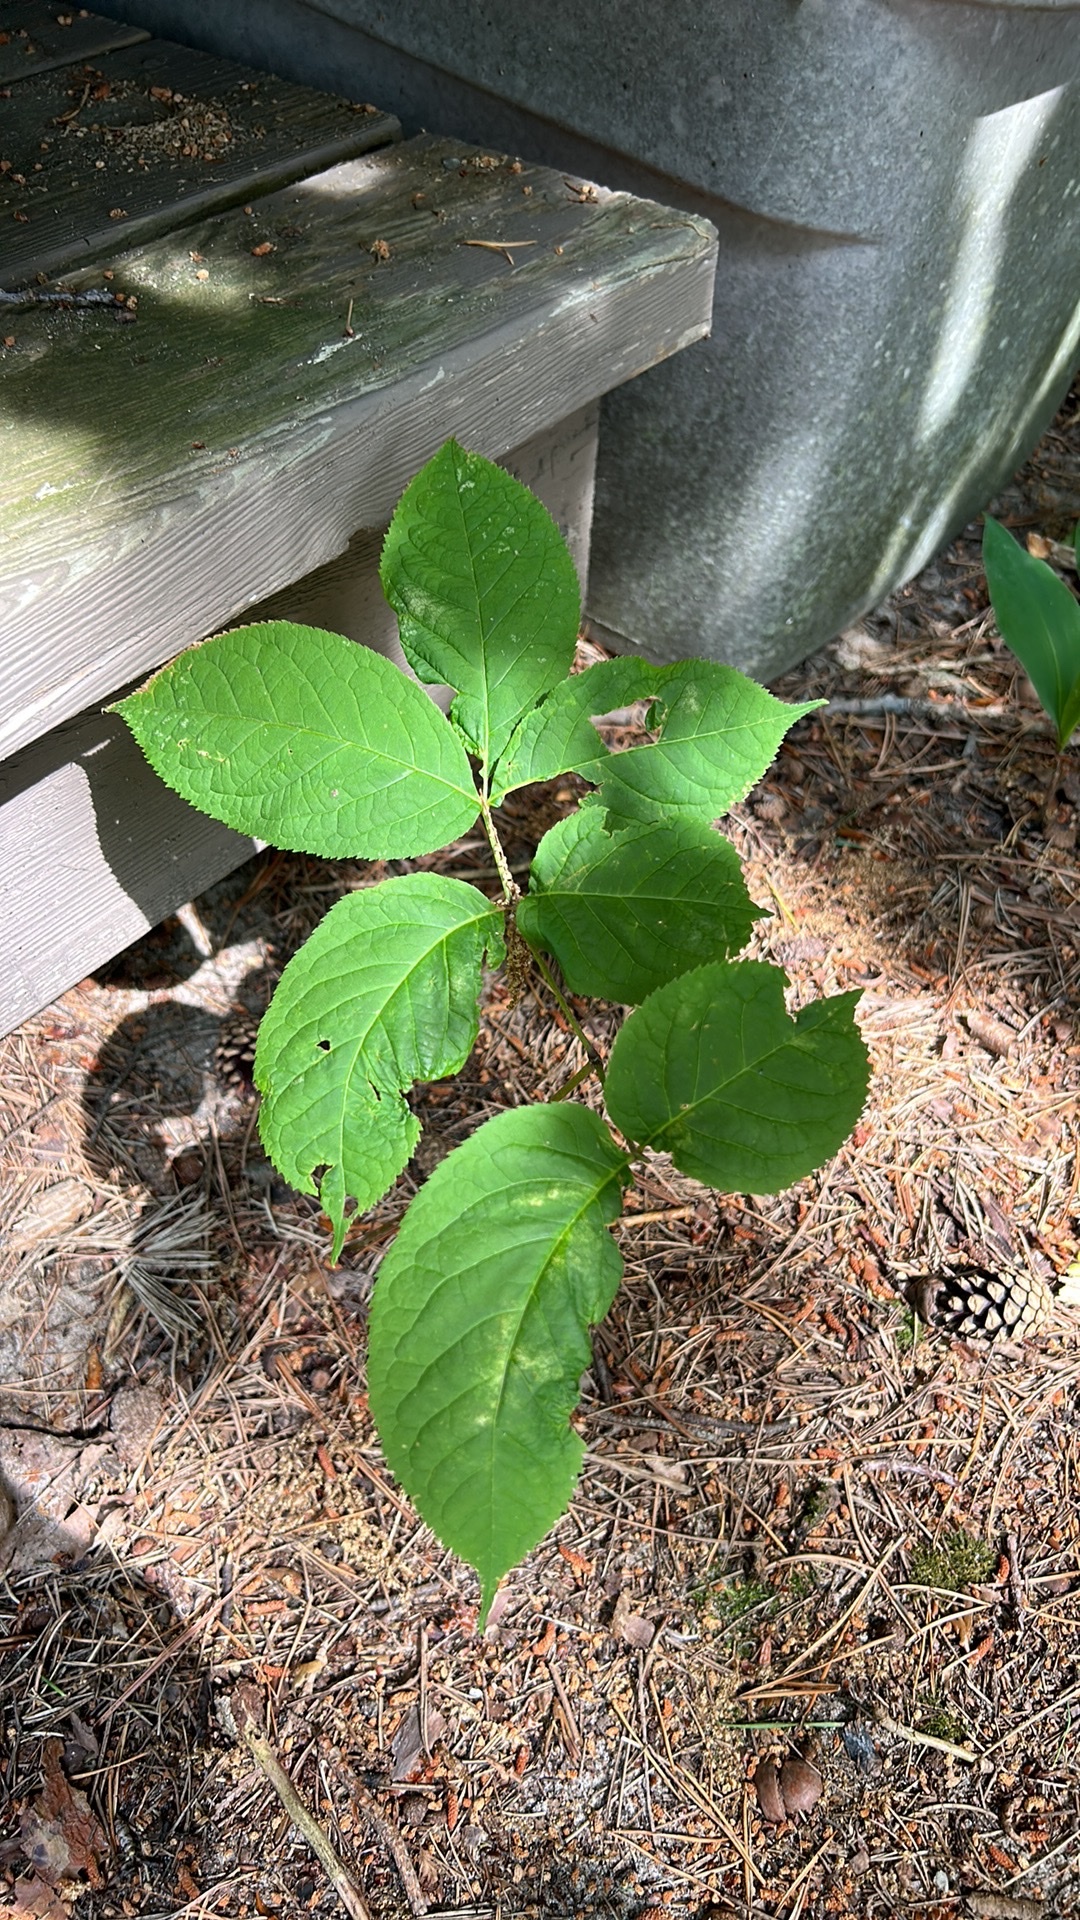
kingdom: Plantae
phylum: Tracheophyta
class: Magnoliopsida
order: Apiales
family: Araliaceae
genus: Aralia
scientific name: Aralia nudicaulis
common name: Wild sarsaparilla
